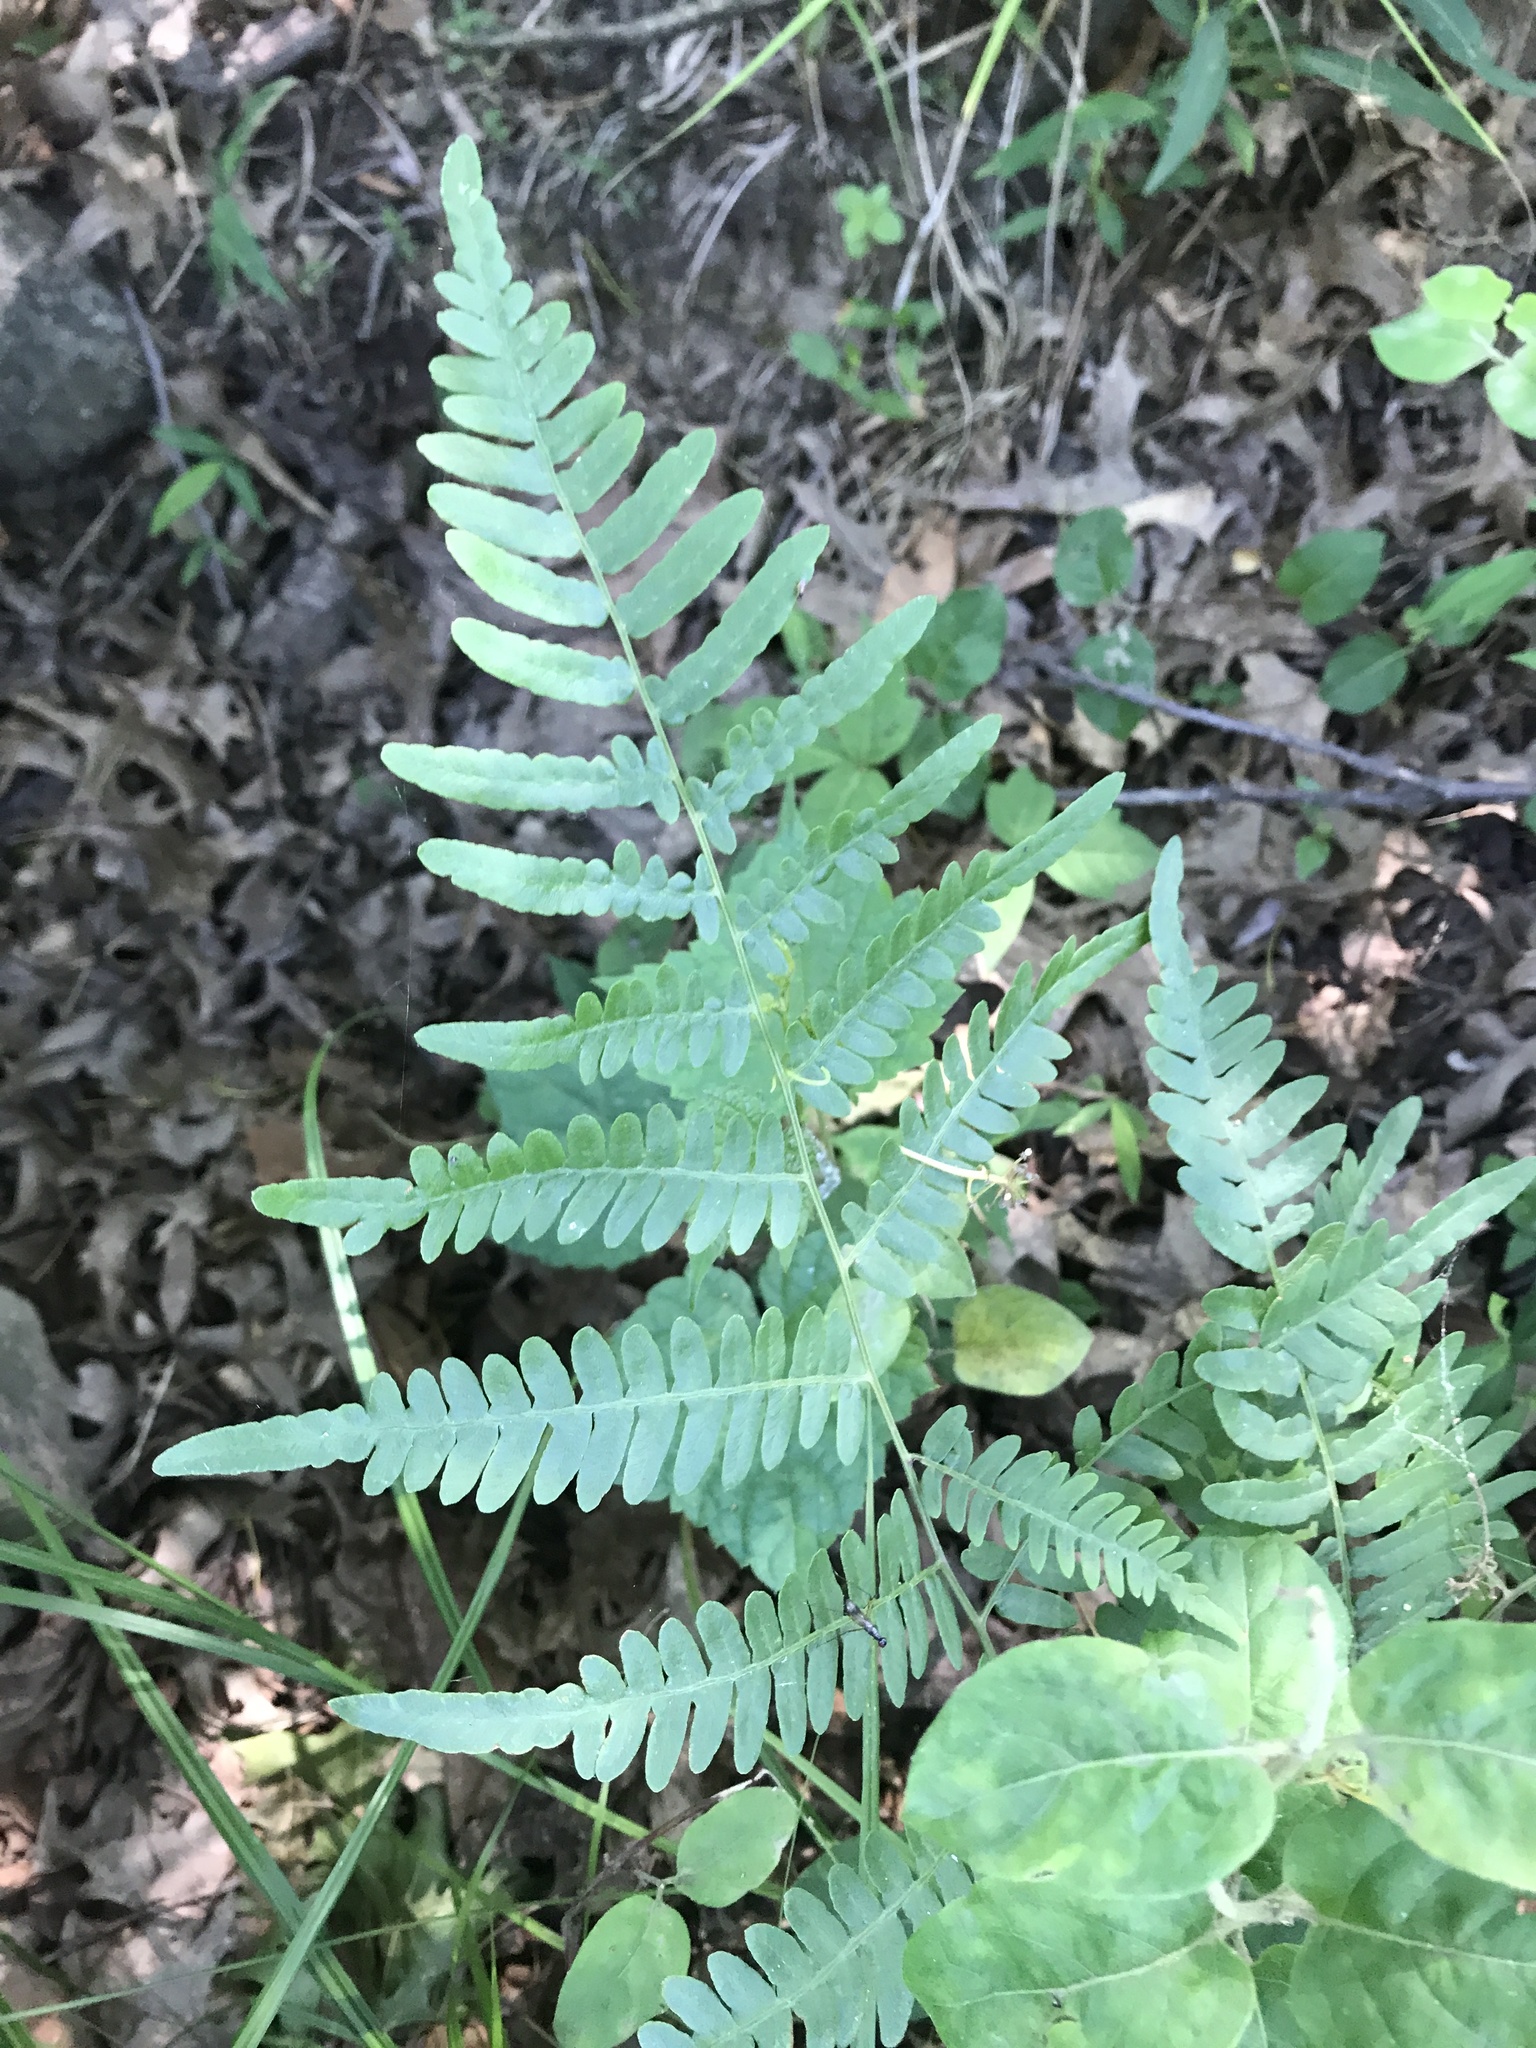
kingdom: Plantae
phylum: Tracheophyta
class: Polypodiopsida
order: Polypodiales
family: Dennstaedtiaceae
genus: Pteridium
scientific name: Pteridium aquilinum
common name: Bracken
